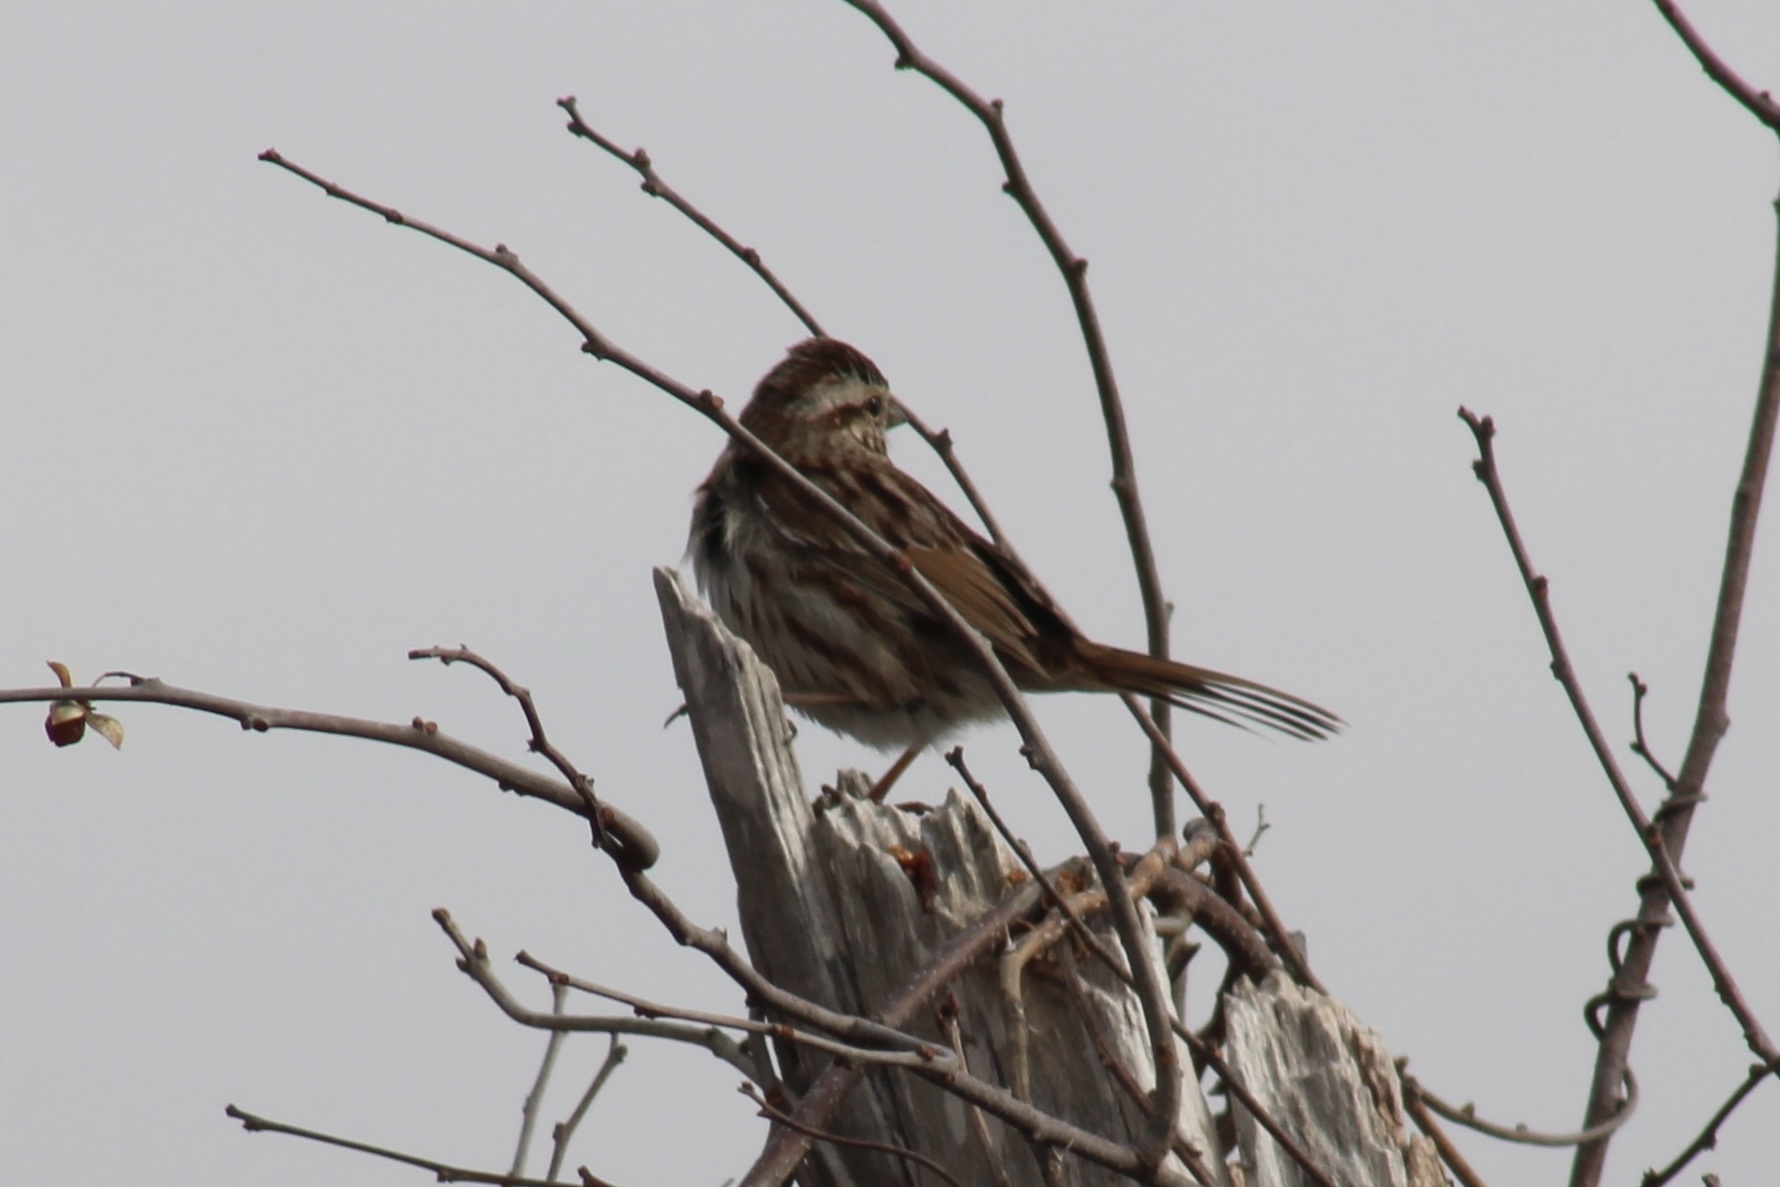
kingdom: Animalia
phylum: Chordata
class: Aves
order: Passeriformes
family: Passerellidae
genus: Melospiza
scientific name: Melospiza melodia
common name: Song sparrow
